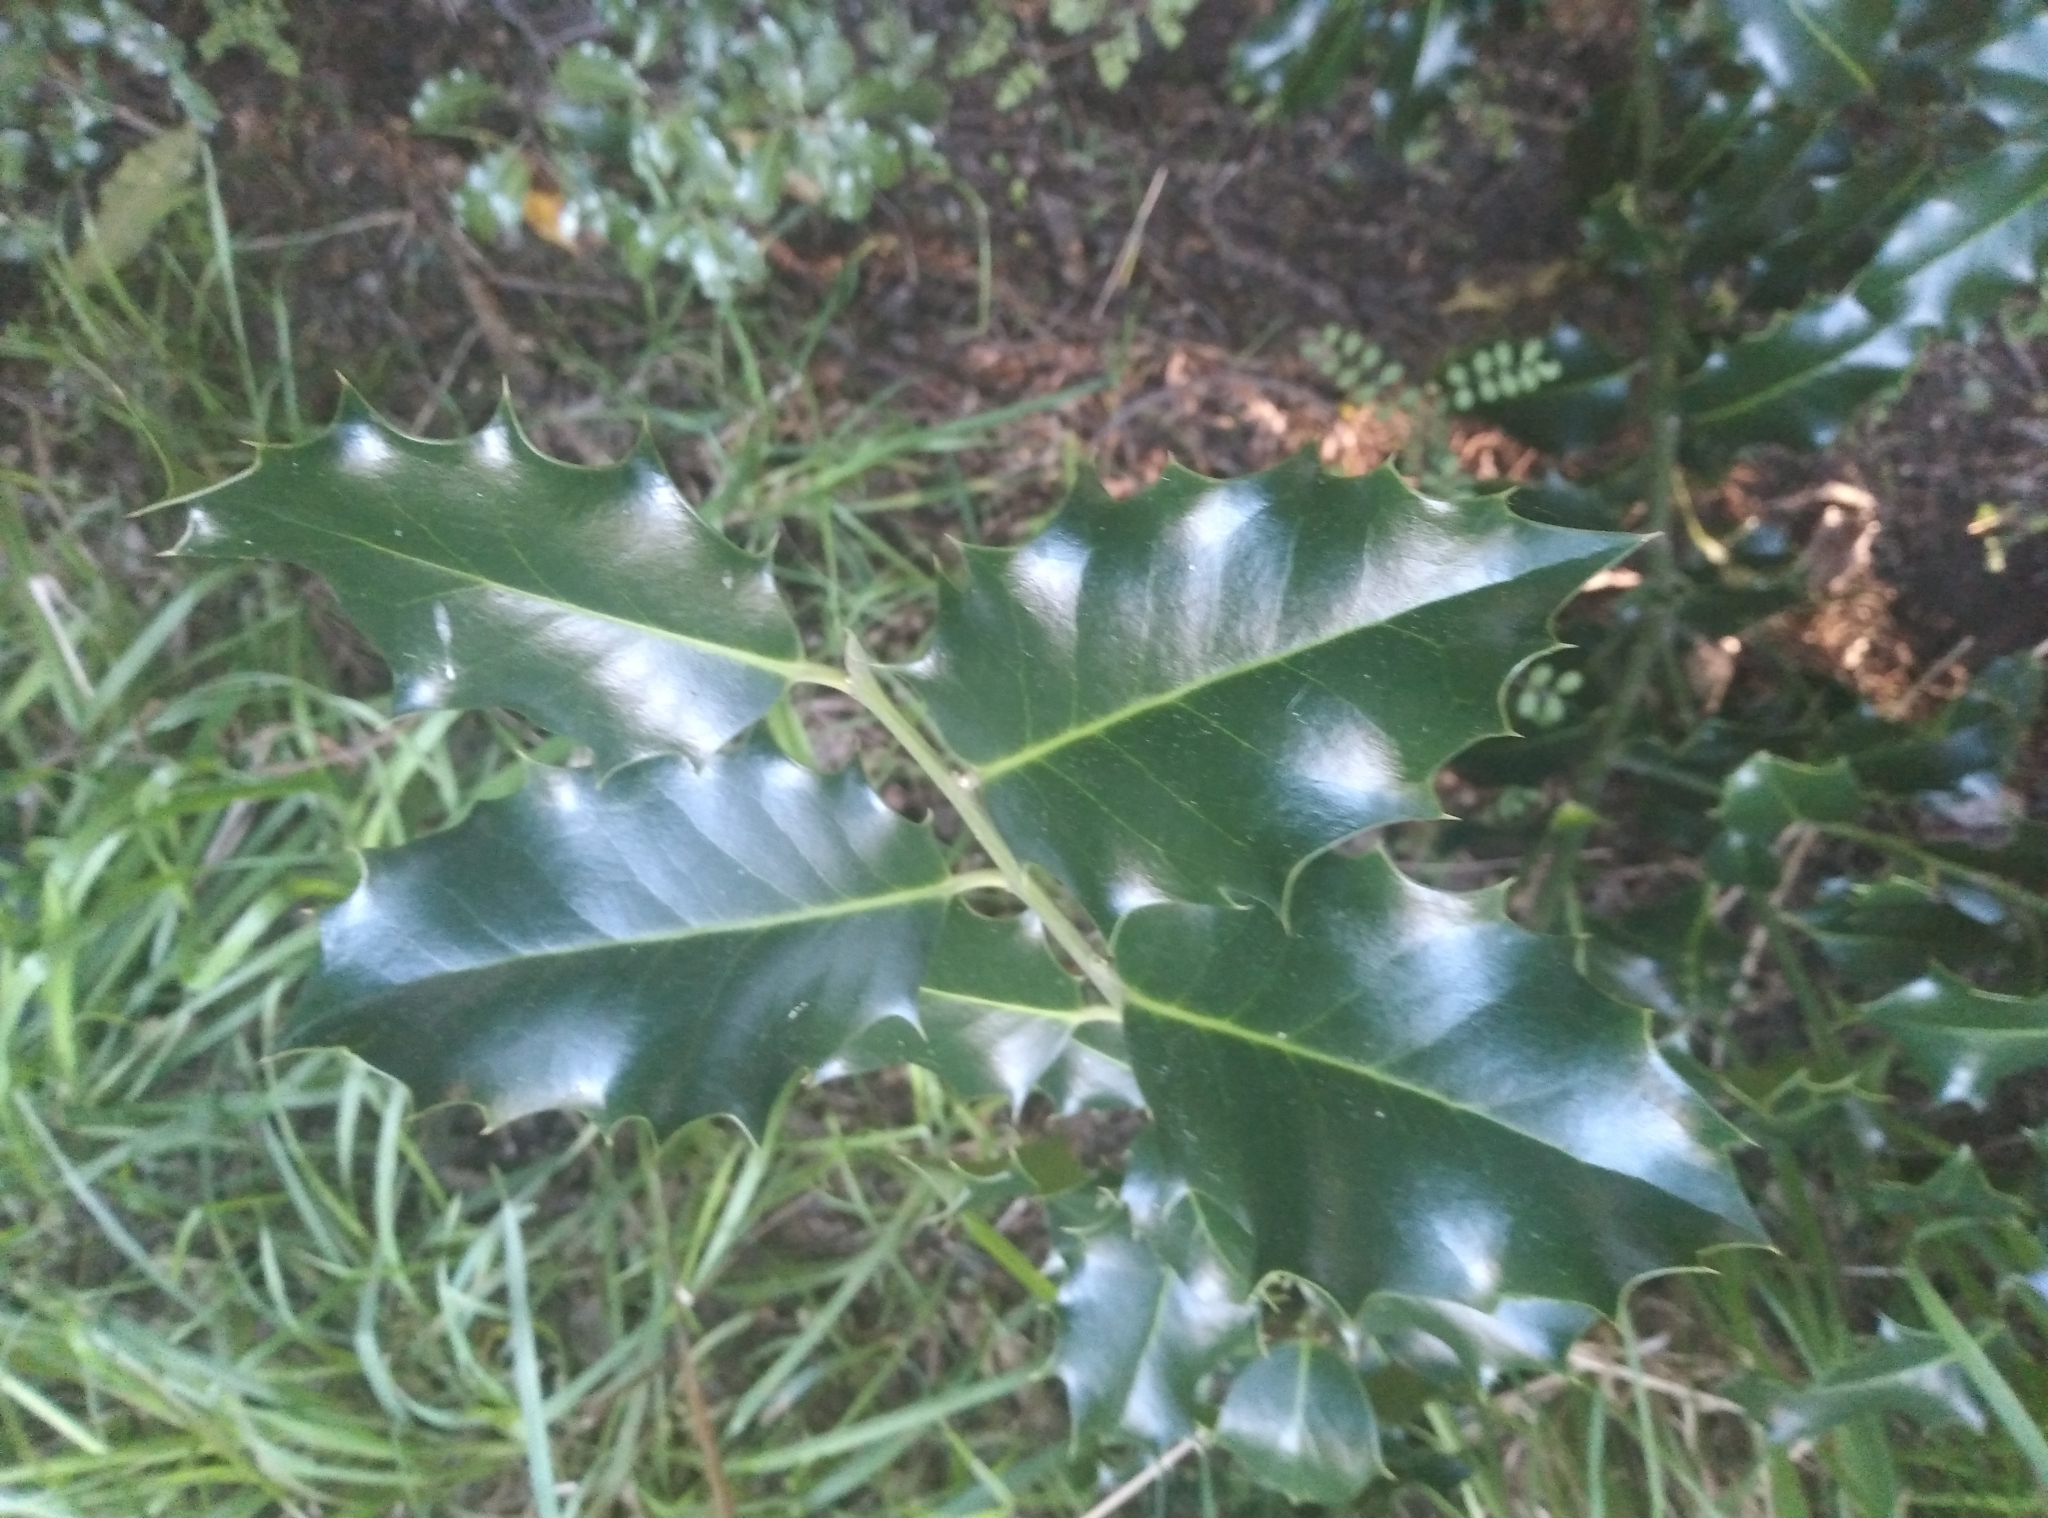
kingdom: Plantae
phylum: Tracheophyta
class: Magnoliopsida
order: Aquifoliales
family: Aquifoliaceae
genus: Ilex
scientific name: Ilex aquifolium
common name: English holly
